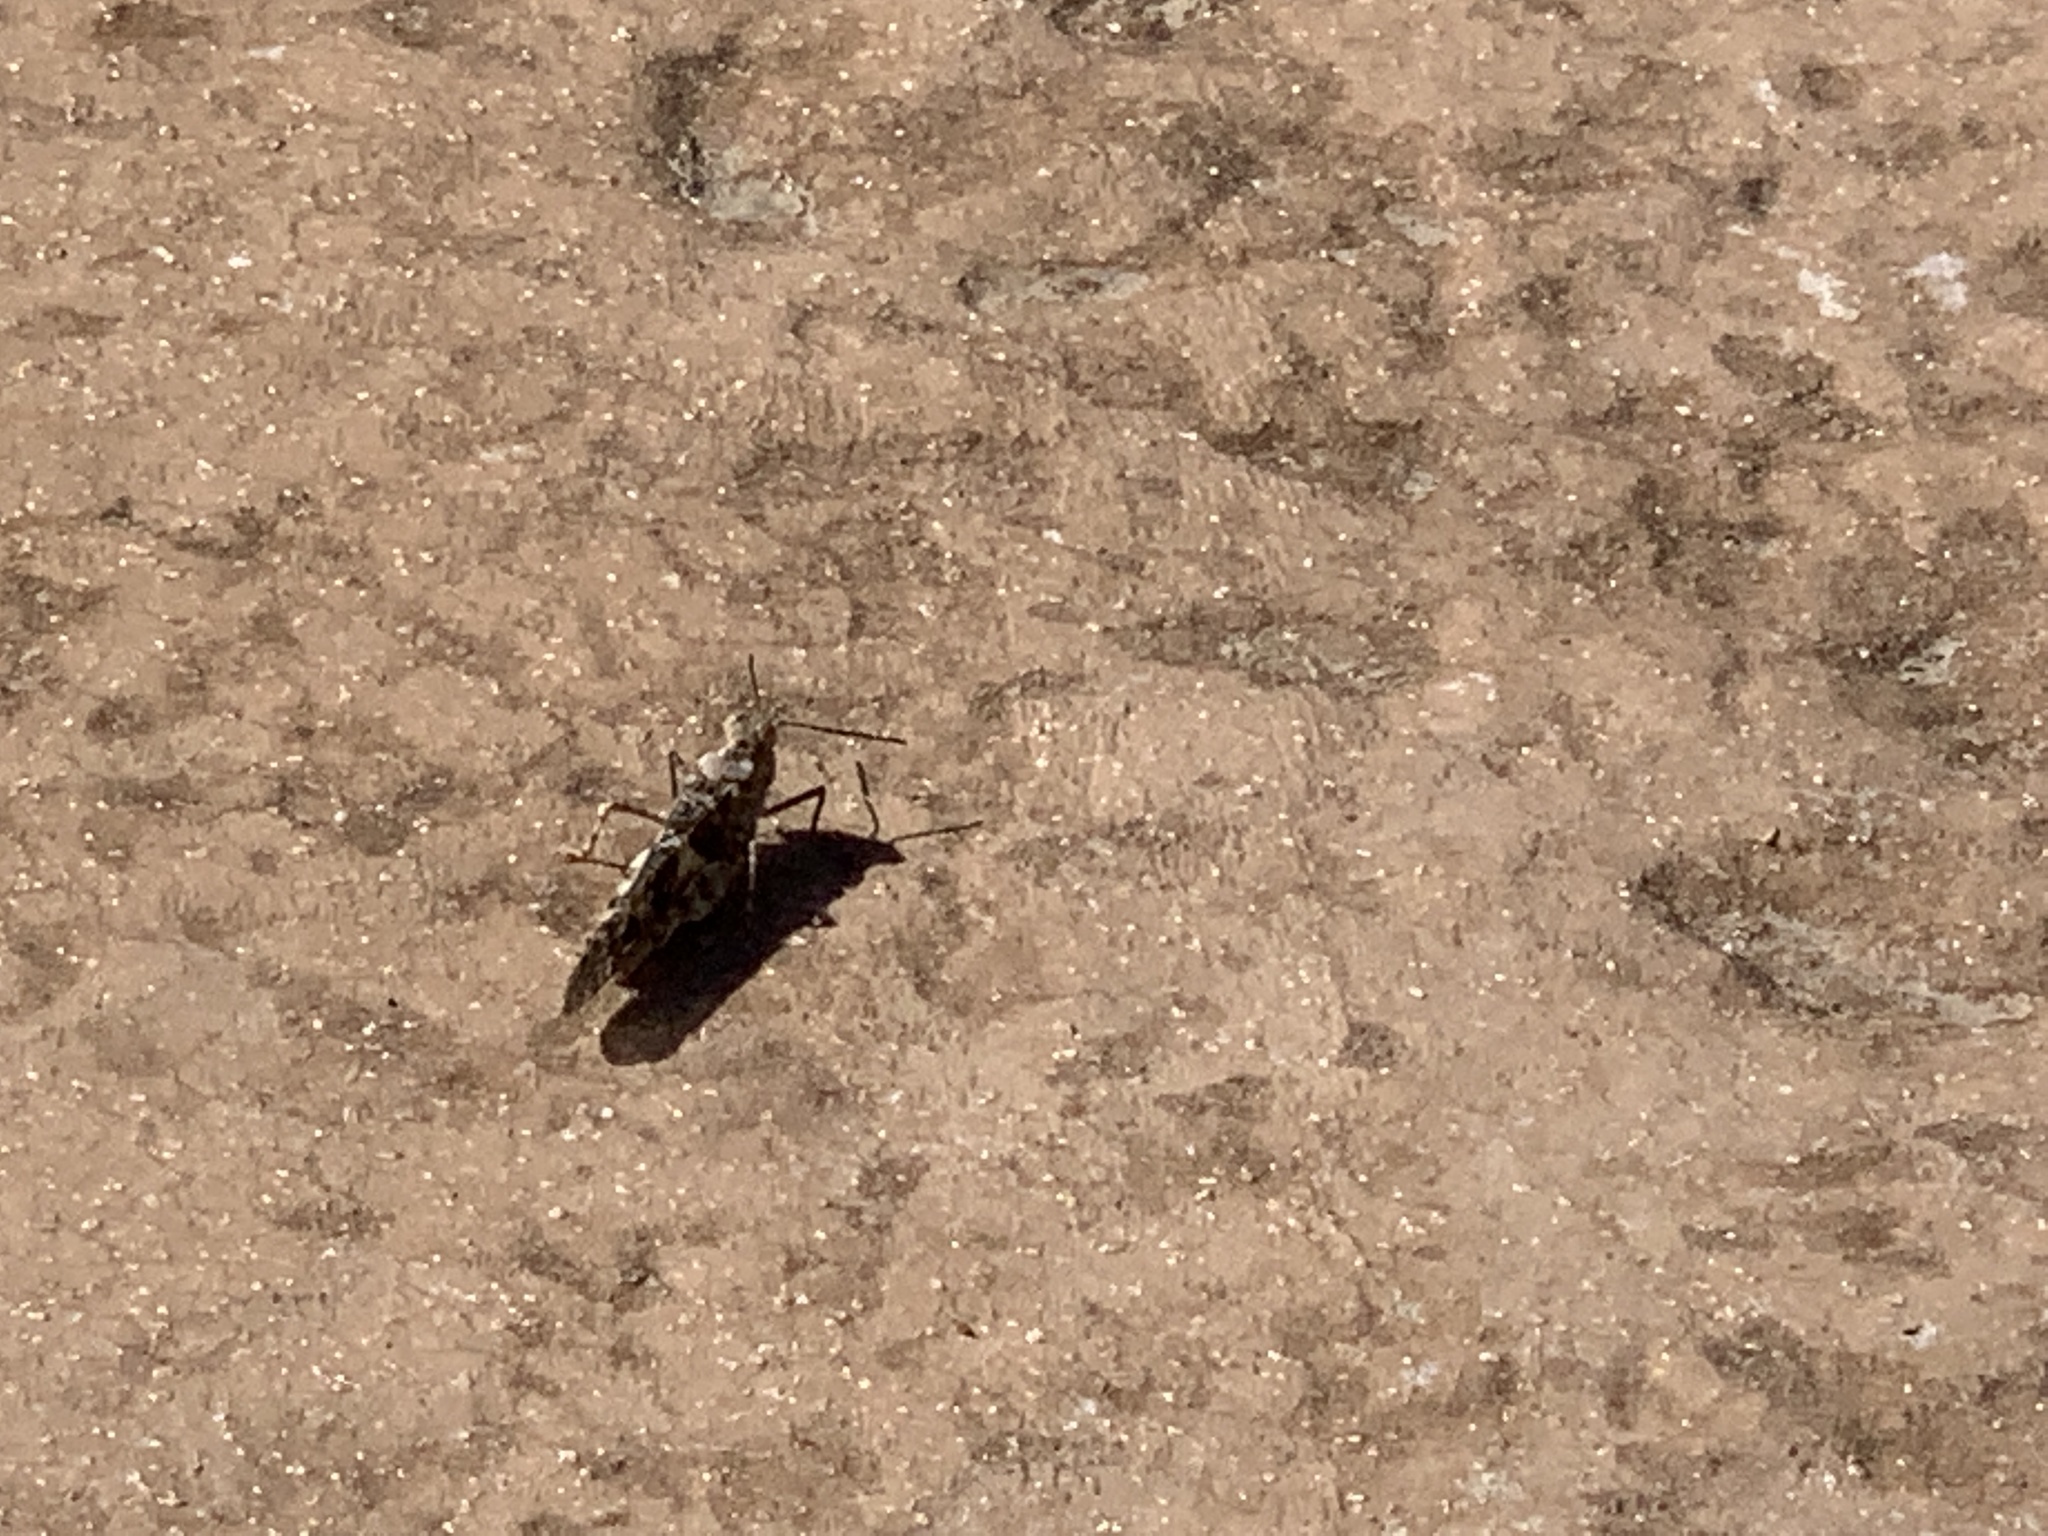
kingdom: Animalia
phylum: Arthropoda
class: Insecta
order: Orthoptera
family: Acrididae
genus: Trimerotropis
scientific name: Trimerotropis pallidipennis
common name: Pallid-winged grasshopper
